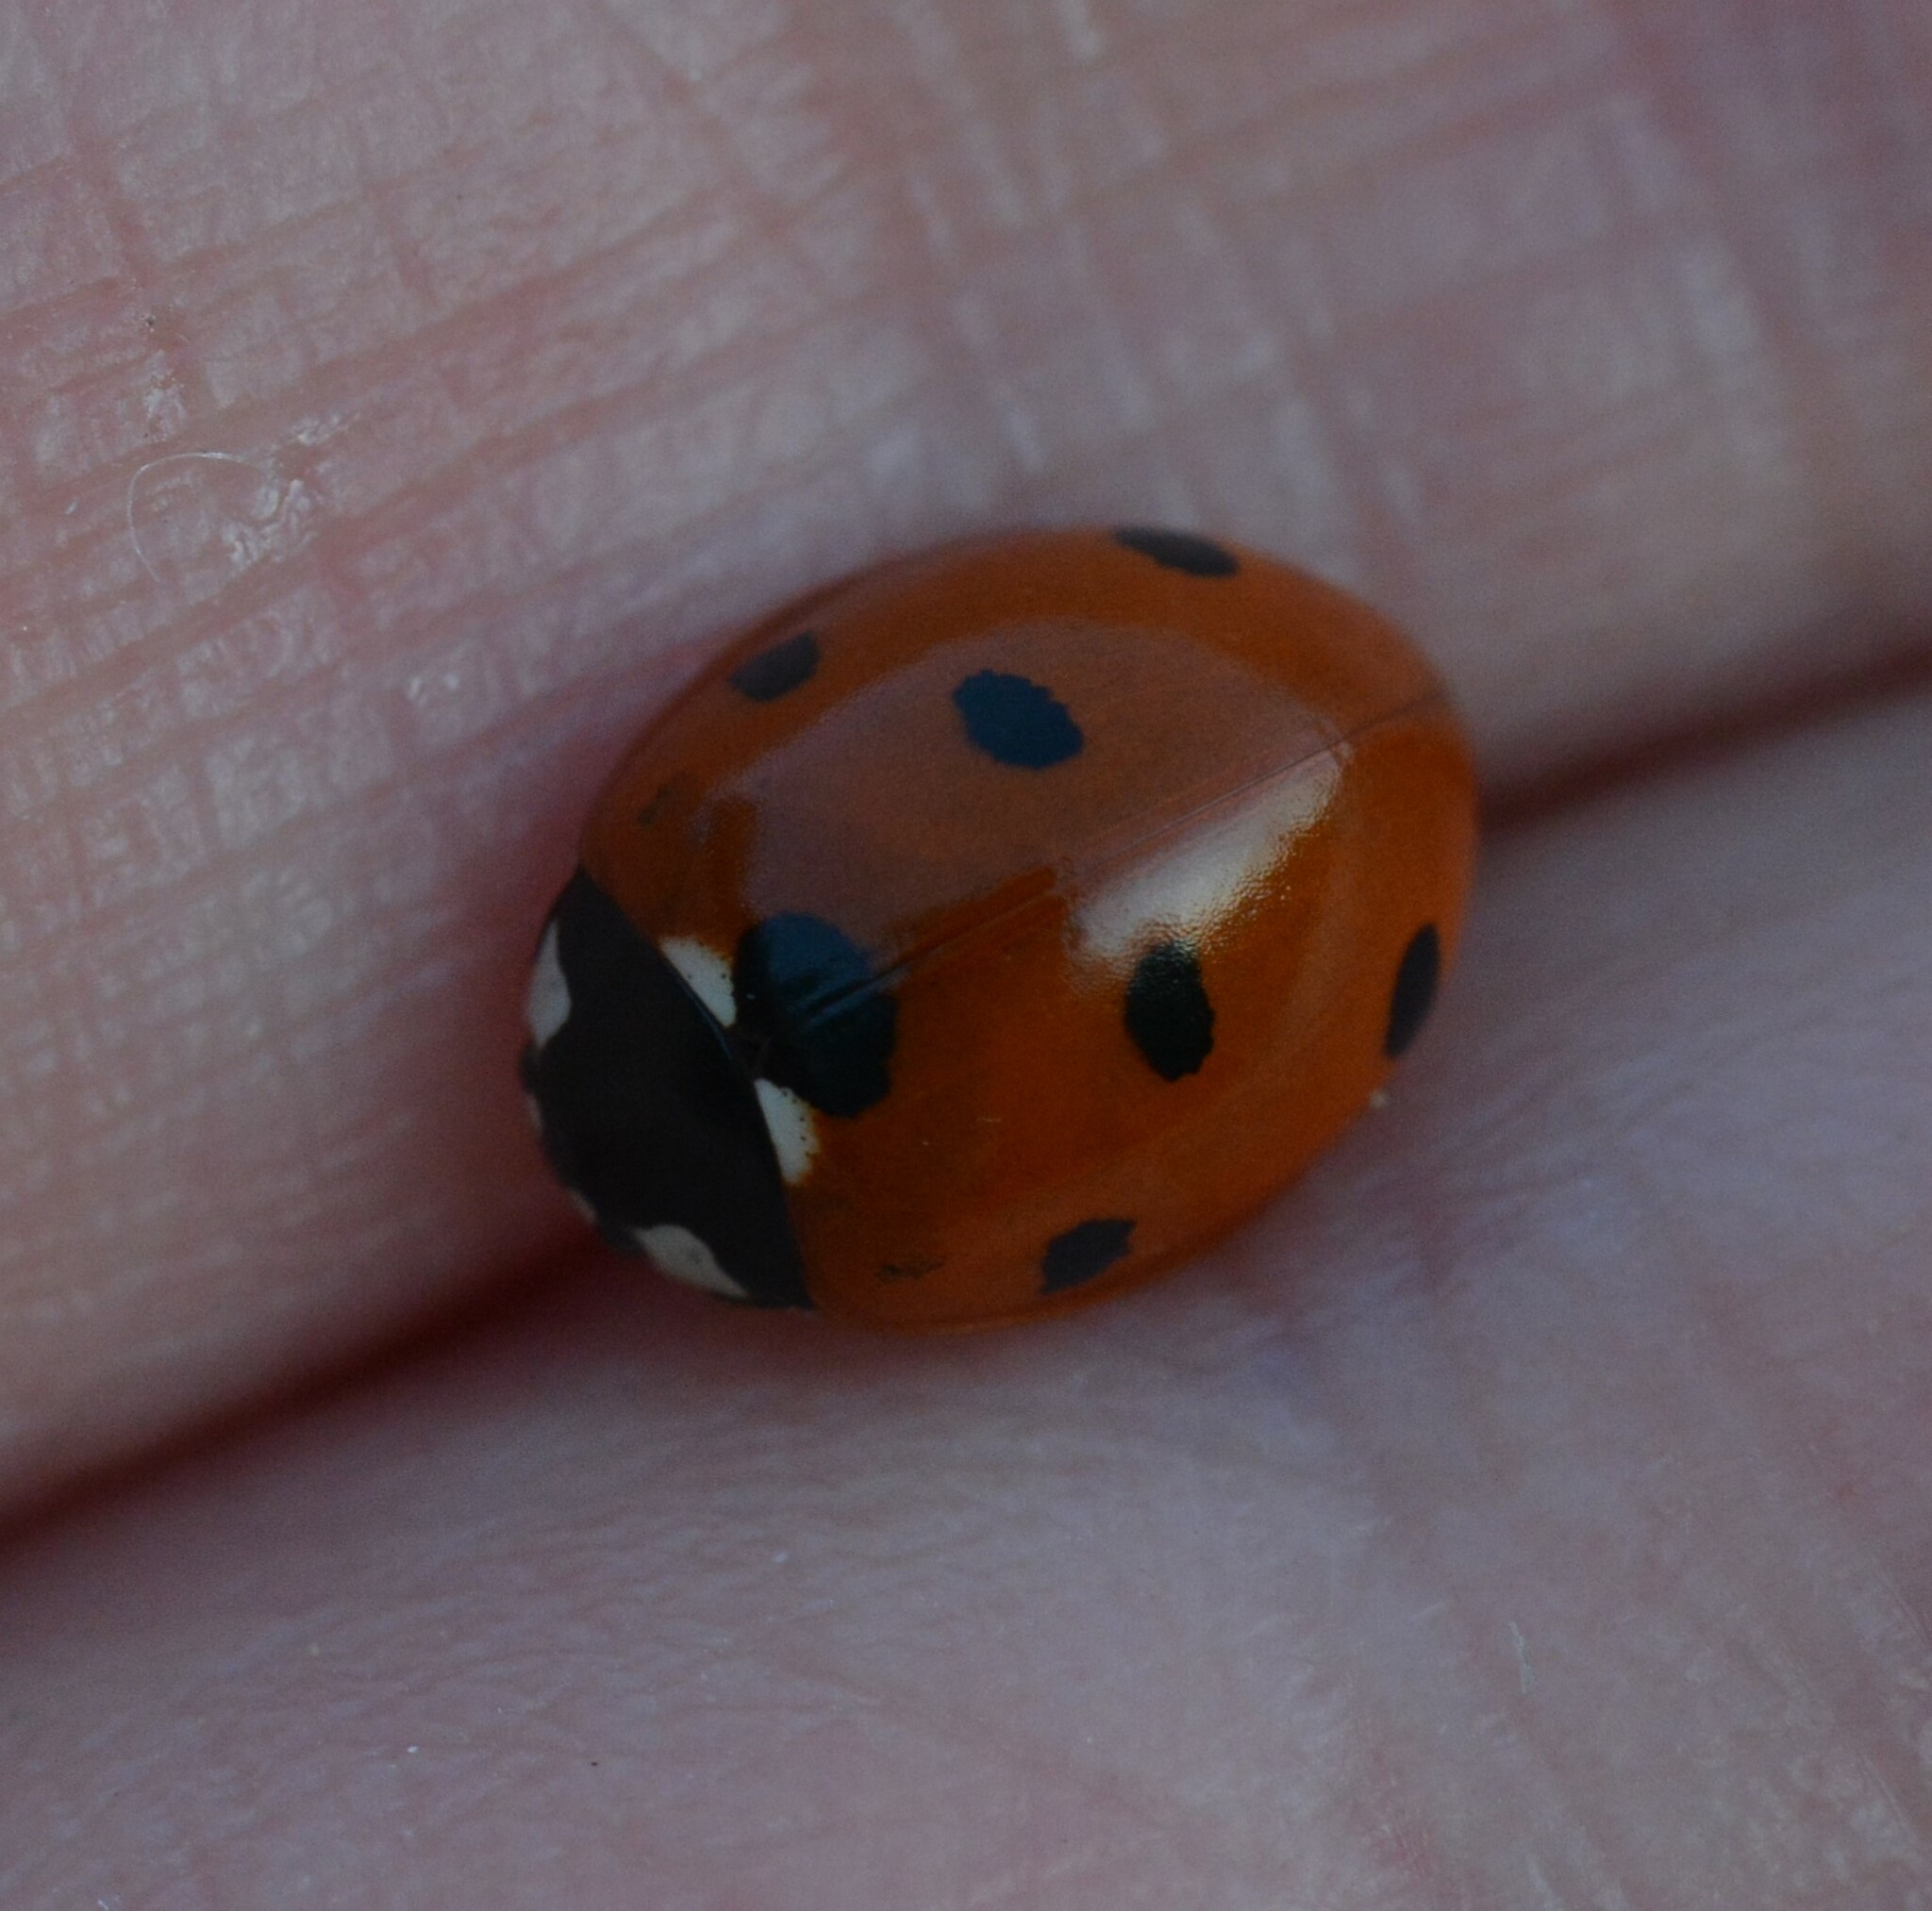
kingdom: Animalia
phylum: Arthropoda
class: Insecta
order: Coleoptera
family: Coccinellidae
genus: Coccinella
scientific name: Coccinella septempunctata
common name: Sevenspotted lady beetle
